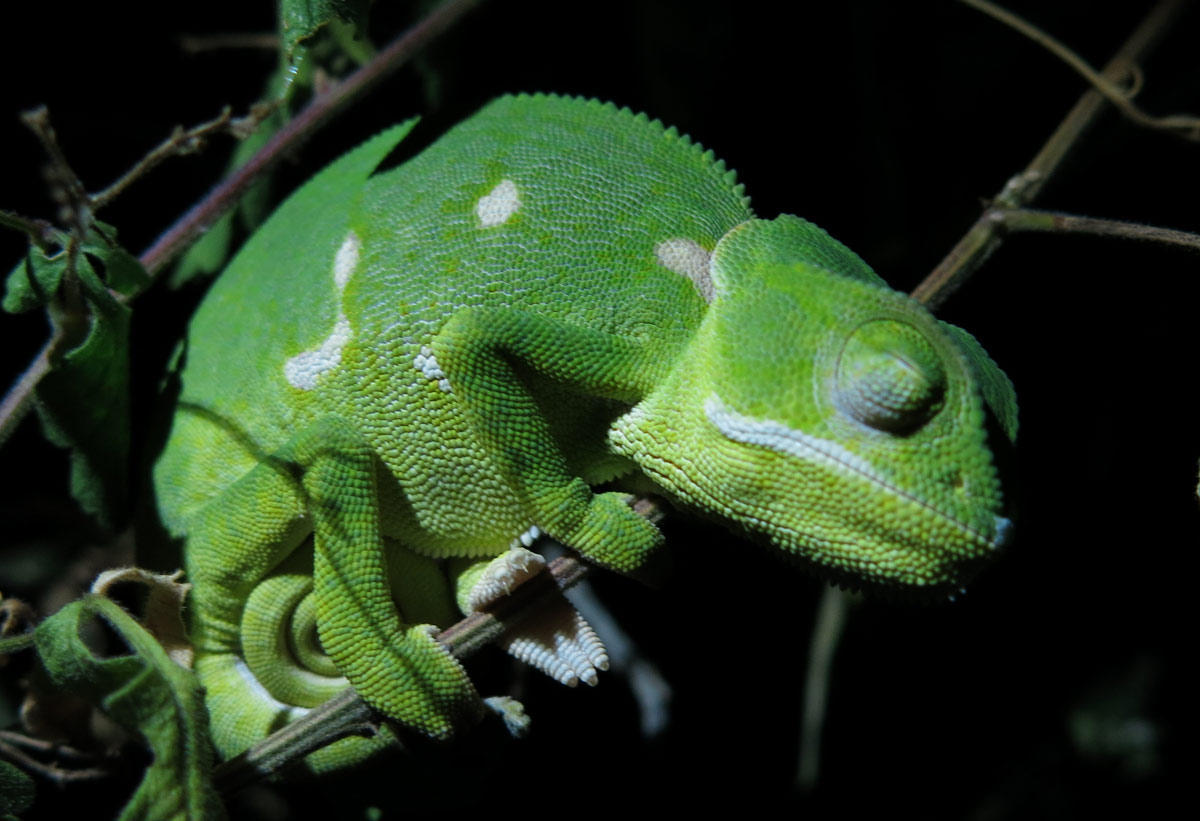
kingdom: Animalia
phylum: Chordata
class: Squamata
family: Chamaeleonidae
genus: Chamaeleo
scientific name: Chamaeleo dilepis
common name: Flapneck chameleon
